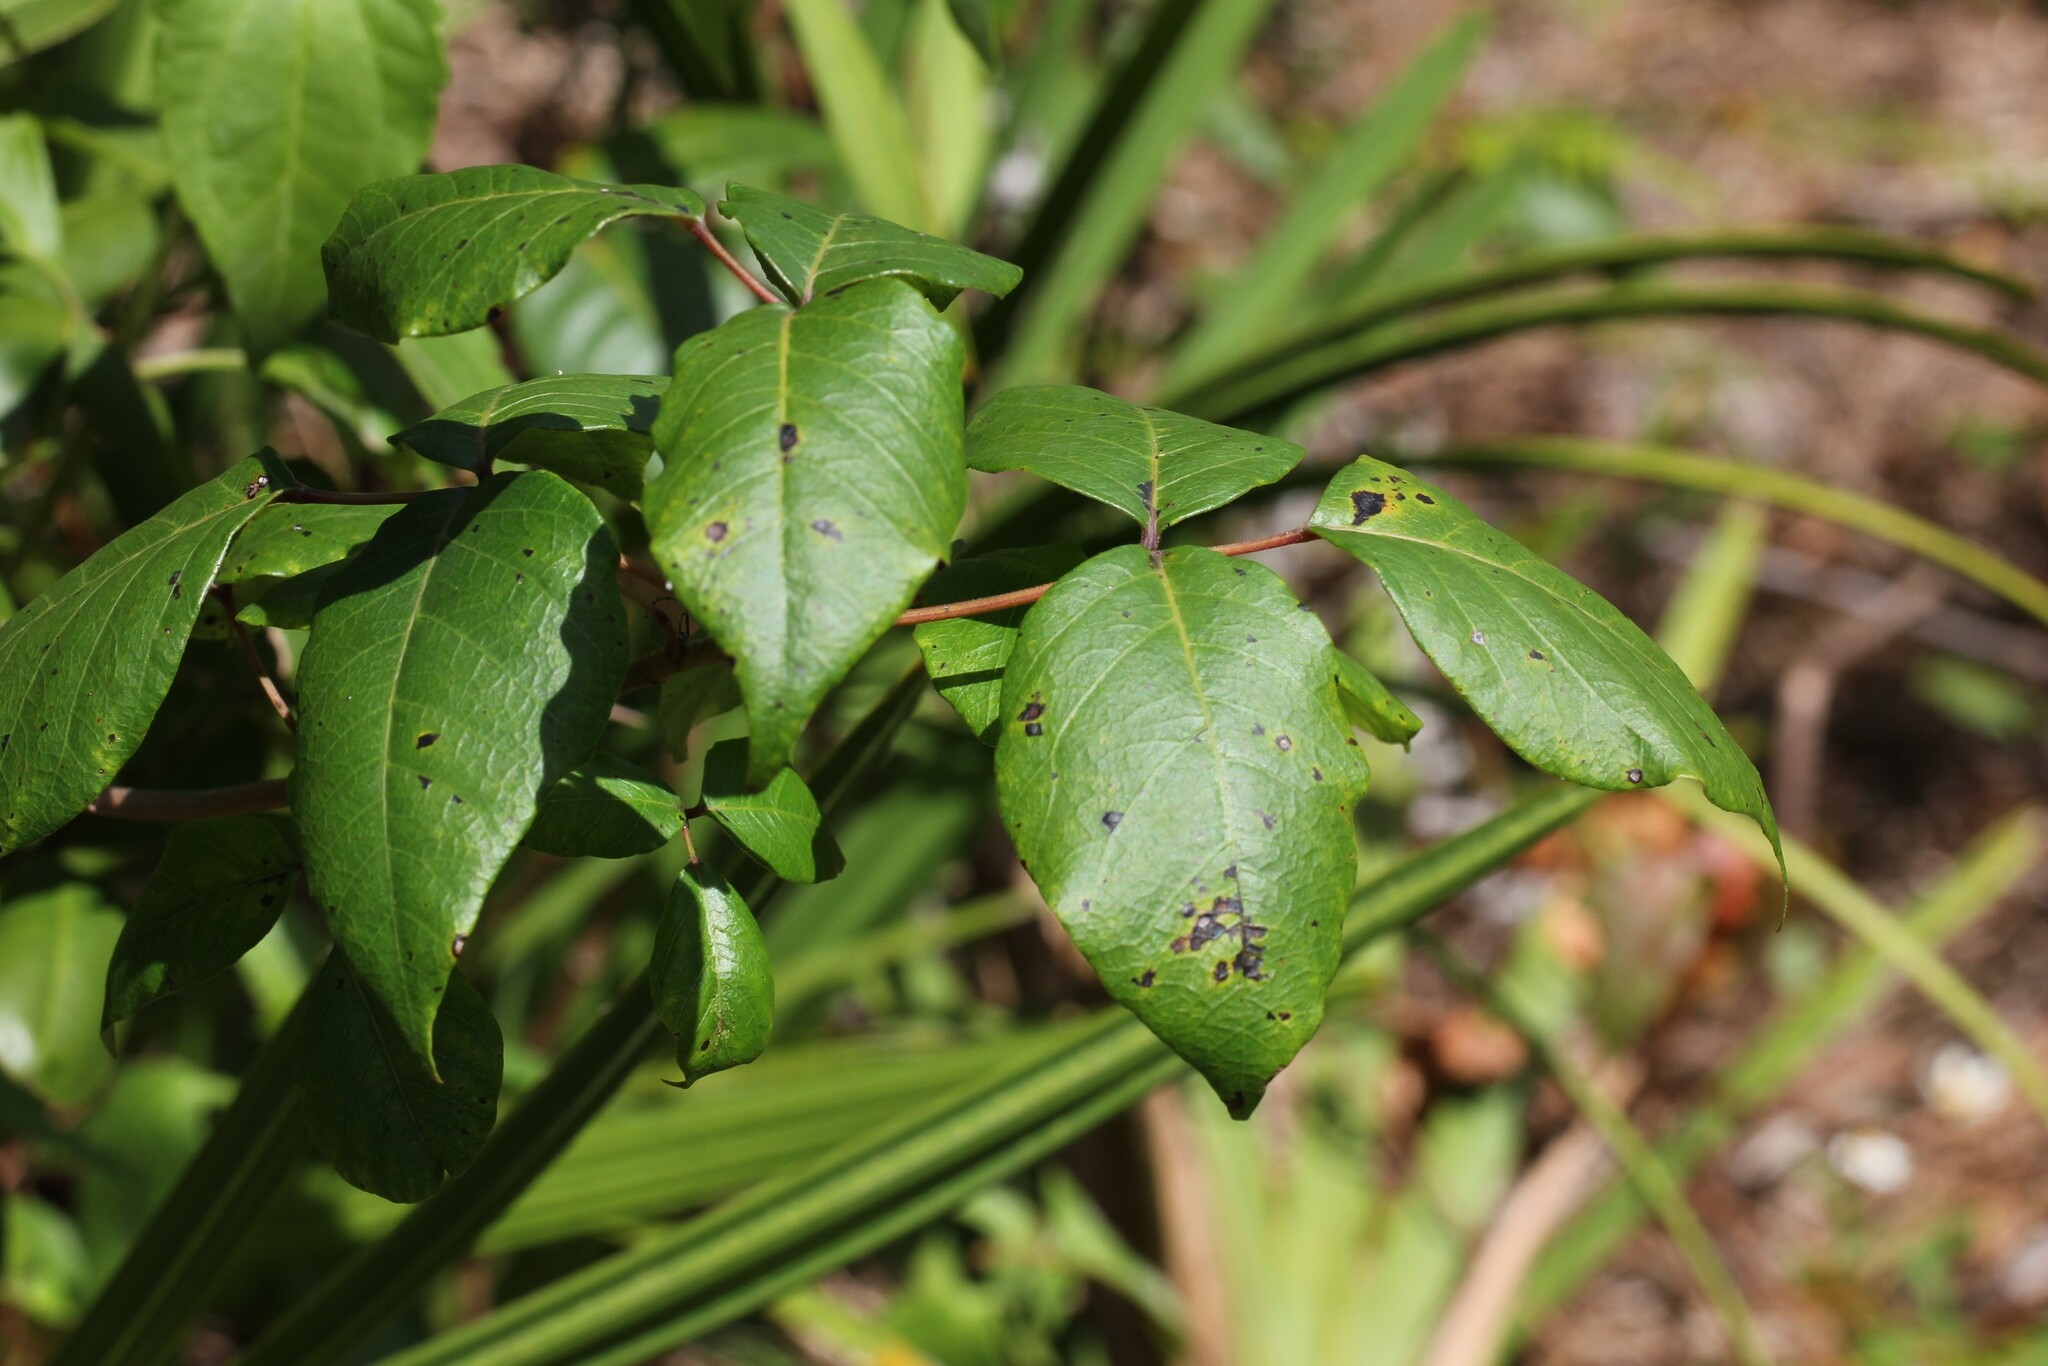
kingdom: Plantae
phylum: Tracheophyta
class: Magnoliopsida
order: Sapindales
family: Anacardiaceae
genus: Toxicodendron
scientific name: Toxicodendron radicans
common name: Poison ivy
